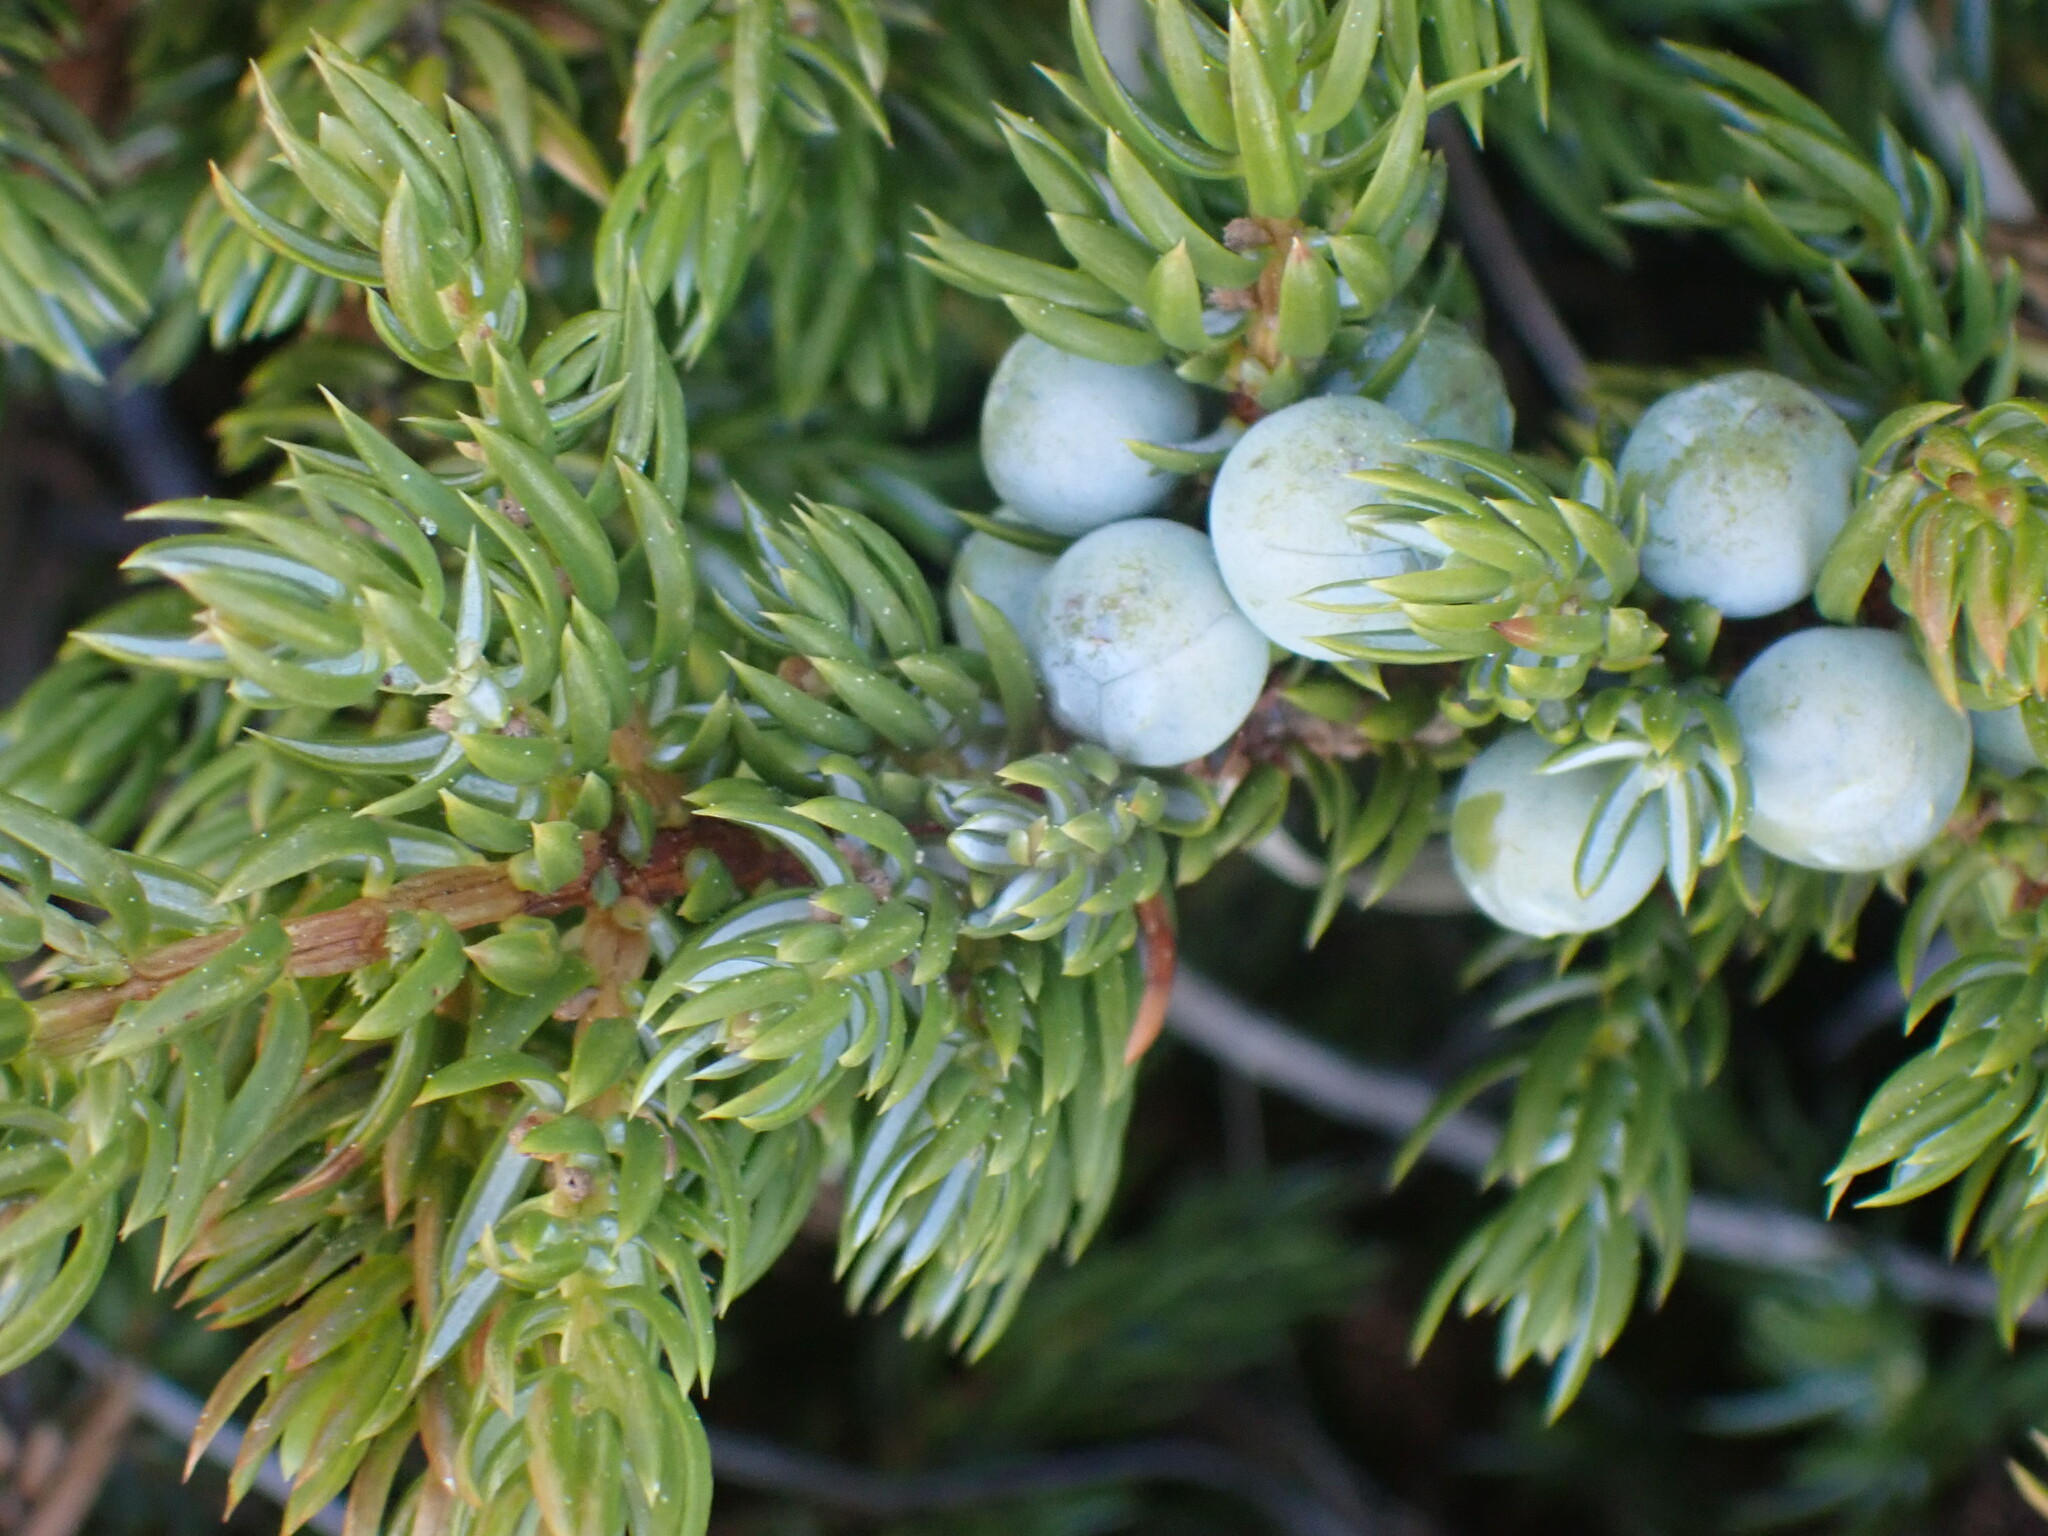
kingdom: Plantae
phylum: Tracheophyta
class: Pinopsida
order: Pinales
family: Cupressaceae
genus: Juniperus
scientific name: Juniperus communis
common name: Common juniper
